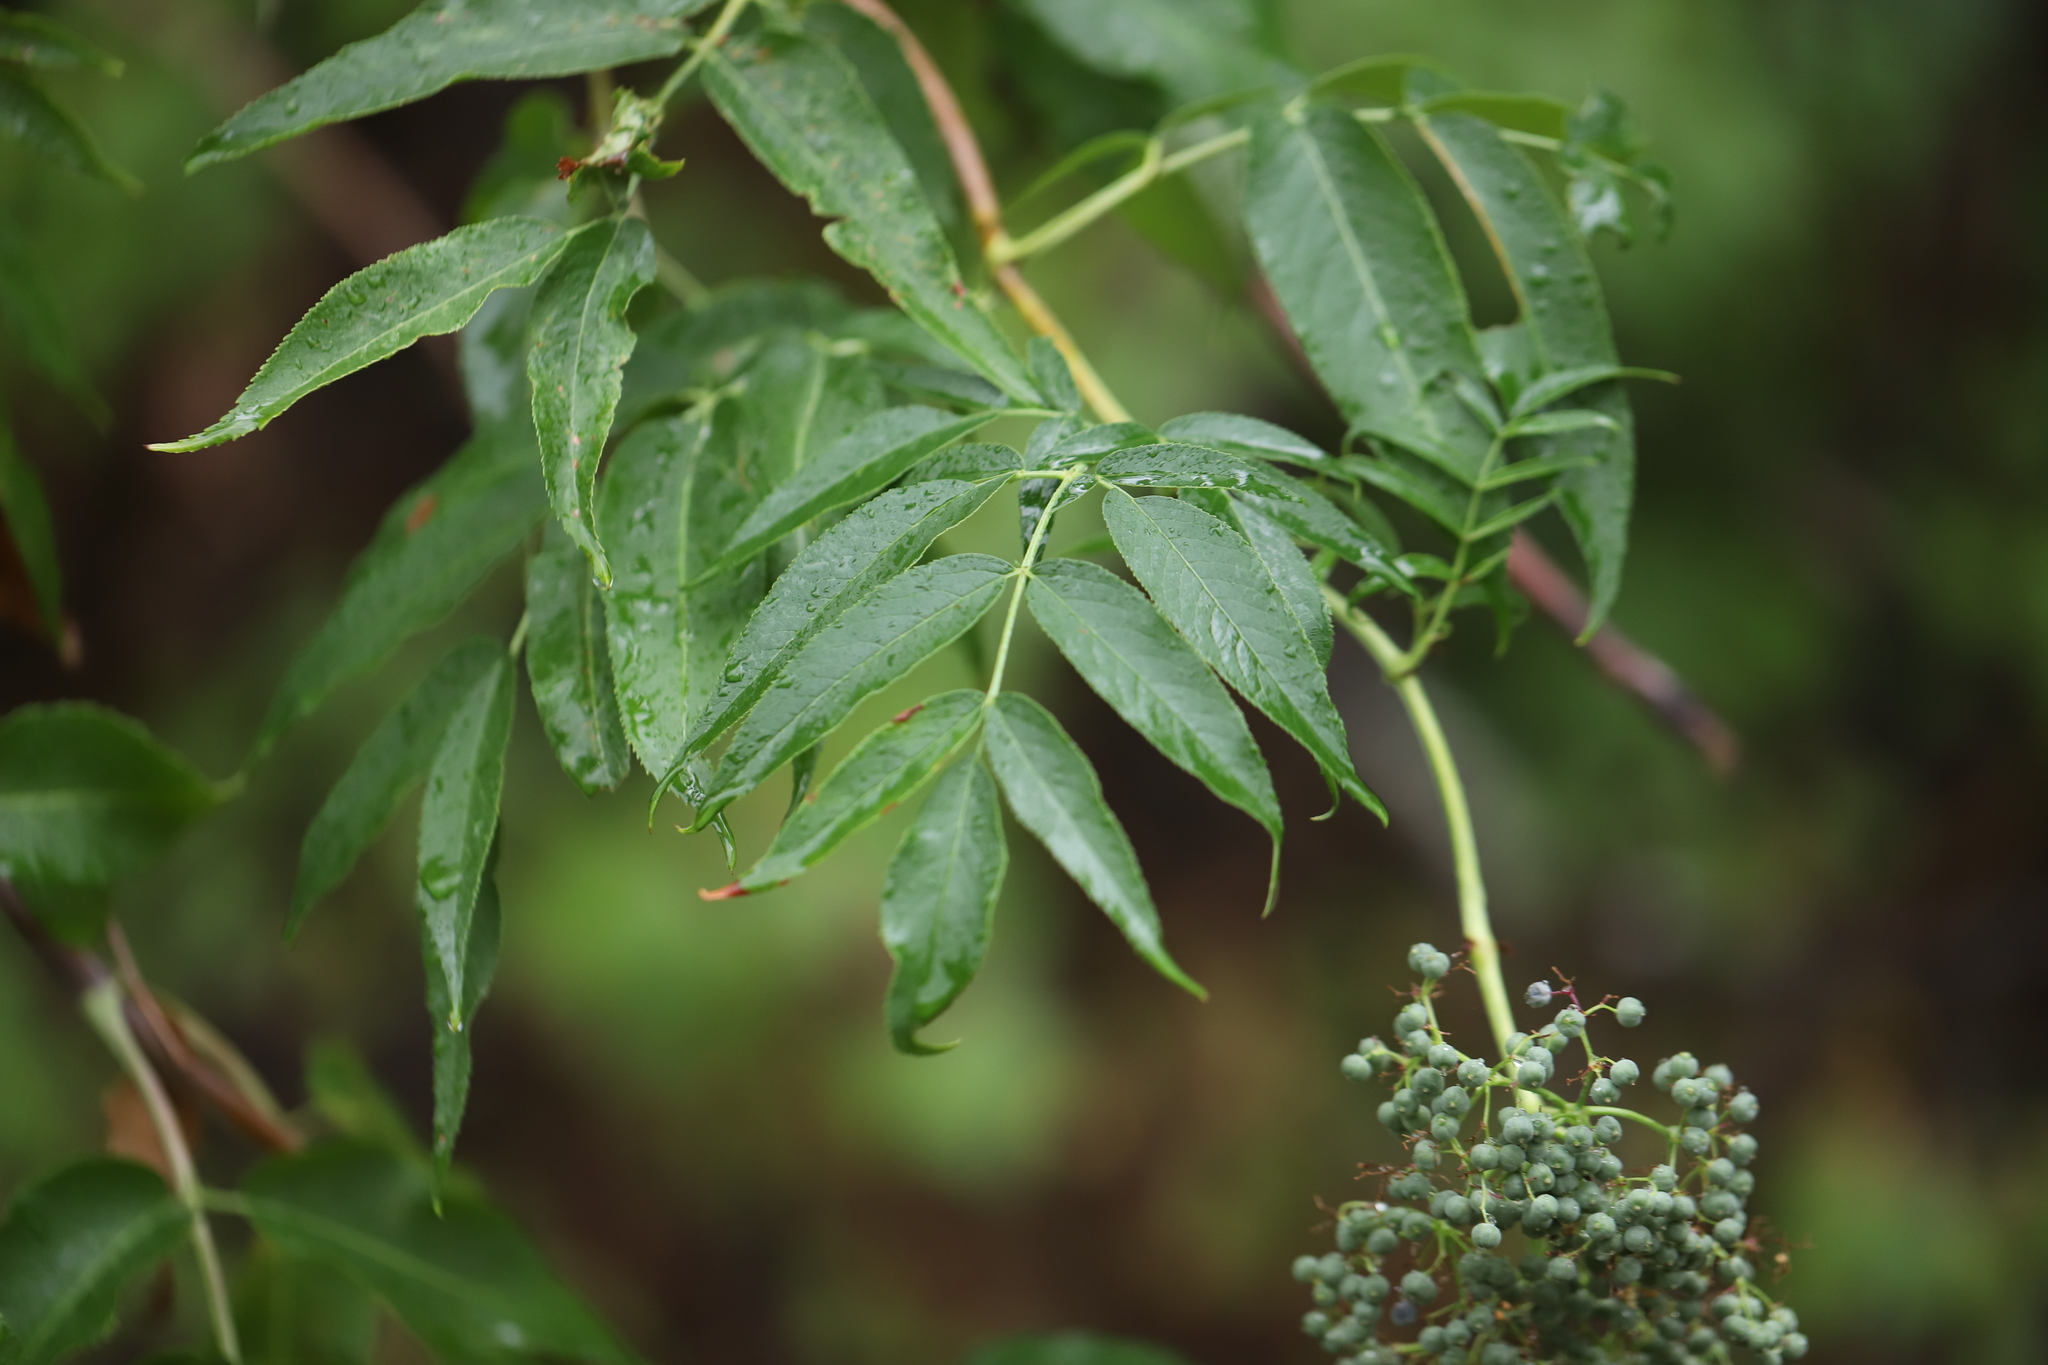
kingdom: Plantae
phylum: Tracheophyta
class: Magnoliopsida
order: Dipsacales
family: Viburnaceae
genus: Sambucus
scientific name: Sambucus racemosa
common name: Red-berried elder
